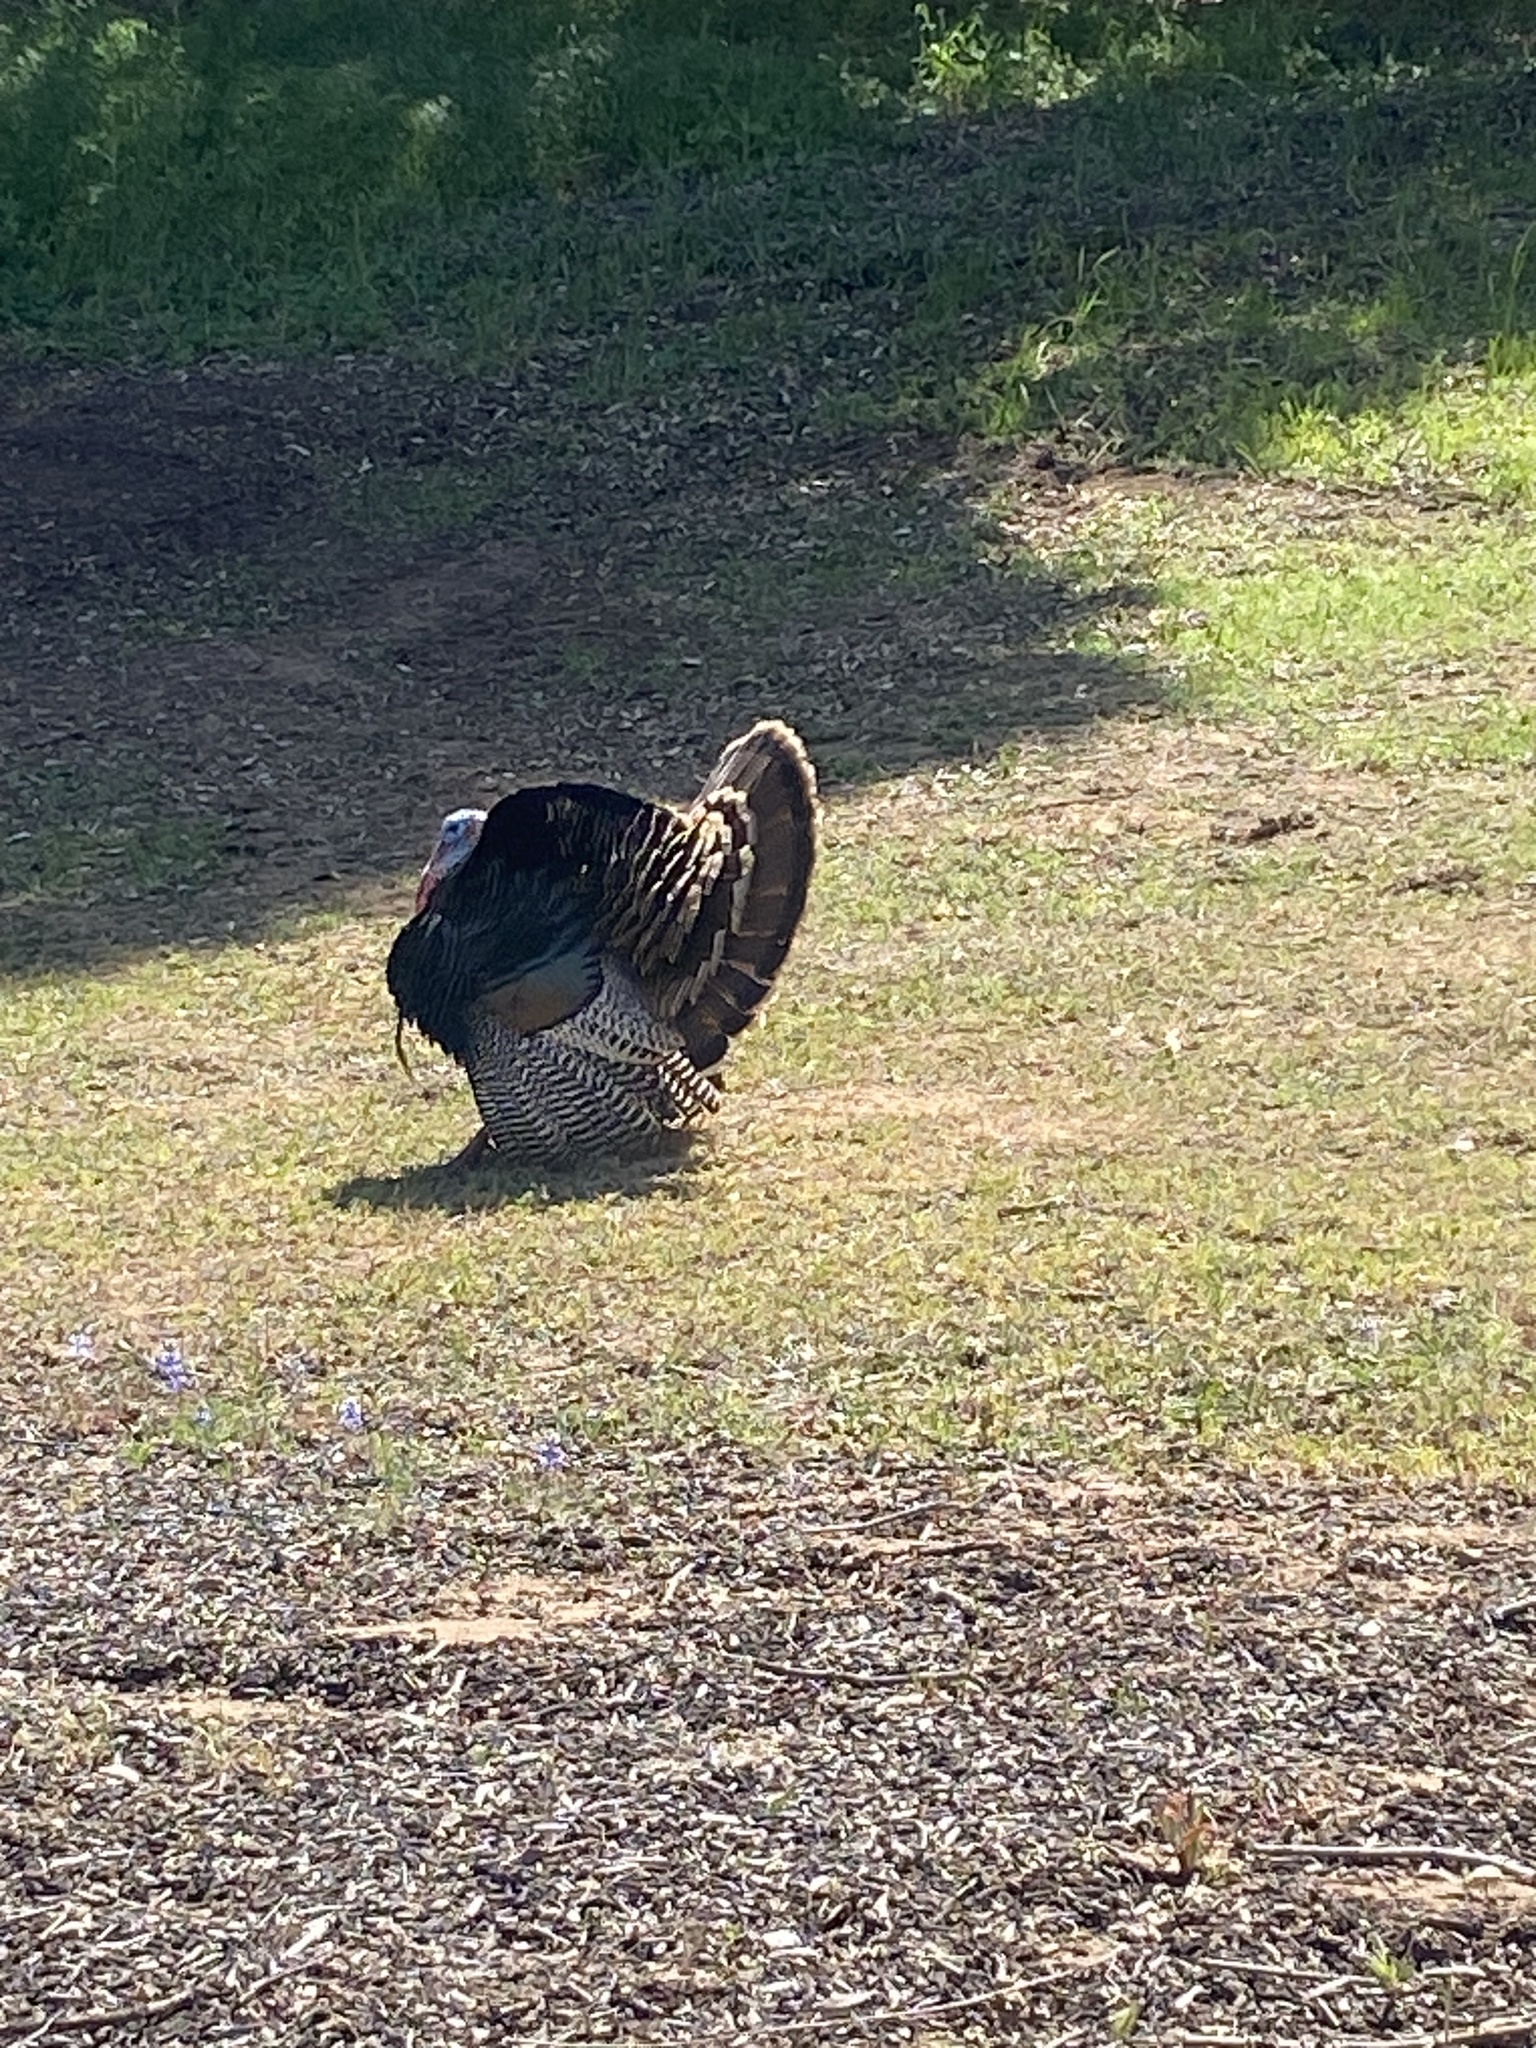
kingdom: Animalia
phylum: Chordata
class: Aves
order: Galliformes
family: Phasianidae
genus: Meleagris
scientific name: Meleagris gallopavo
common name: Wild turkey
